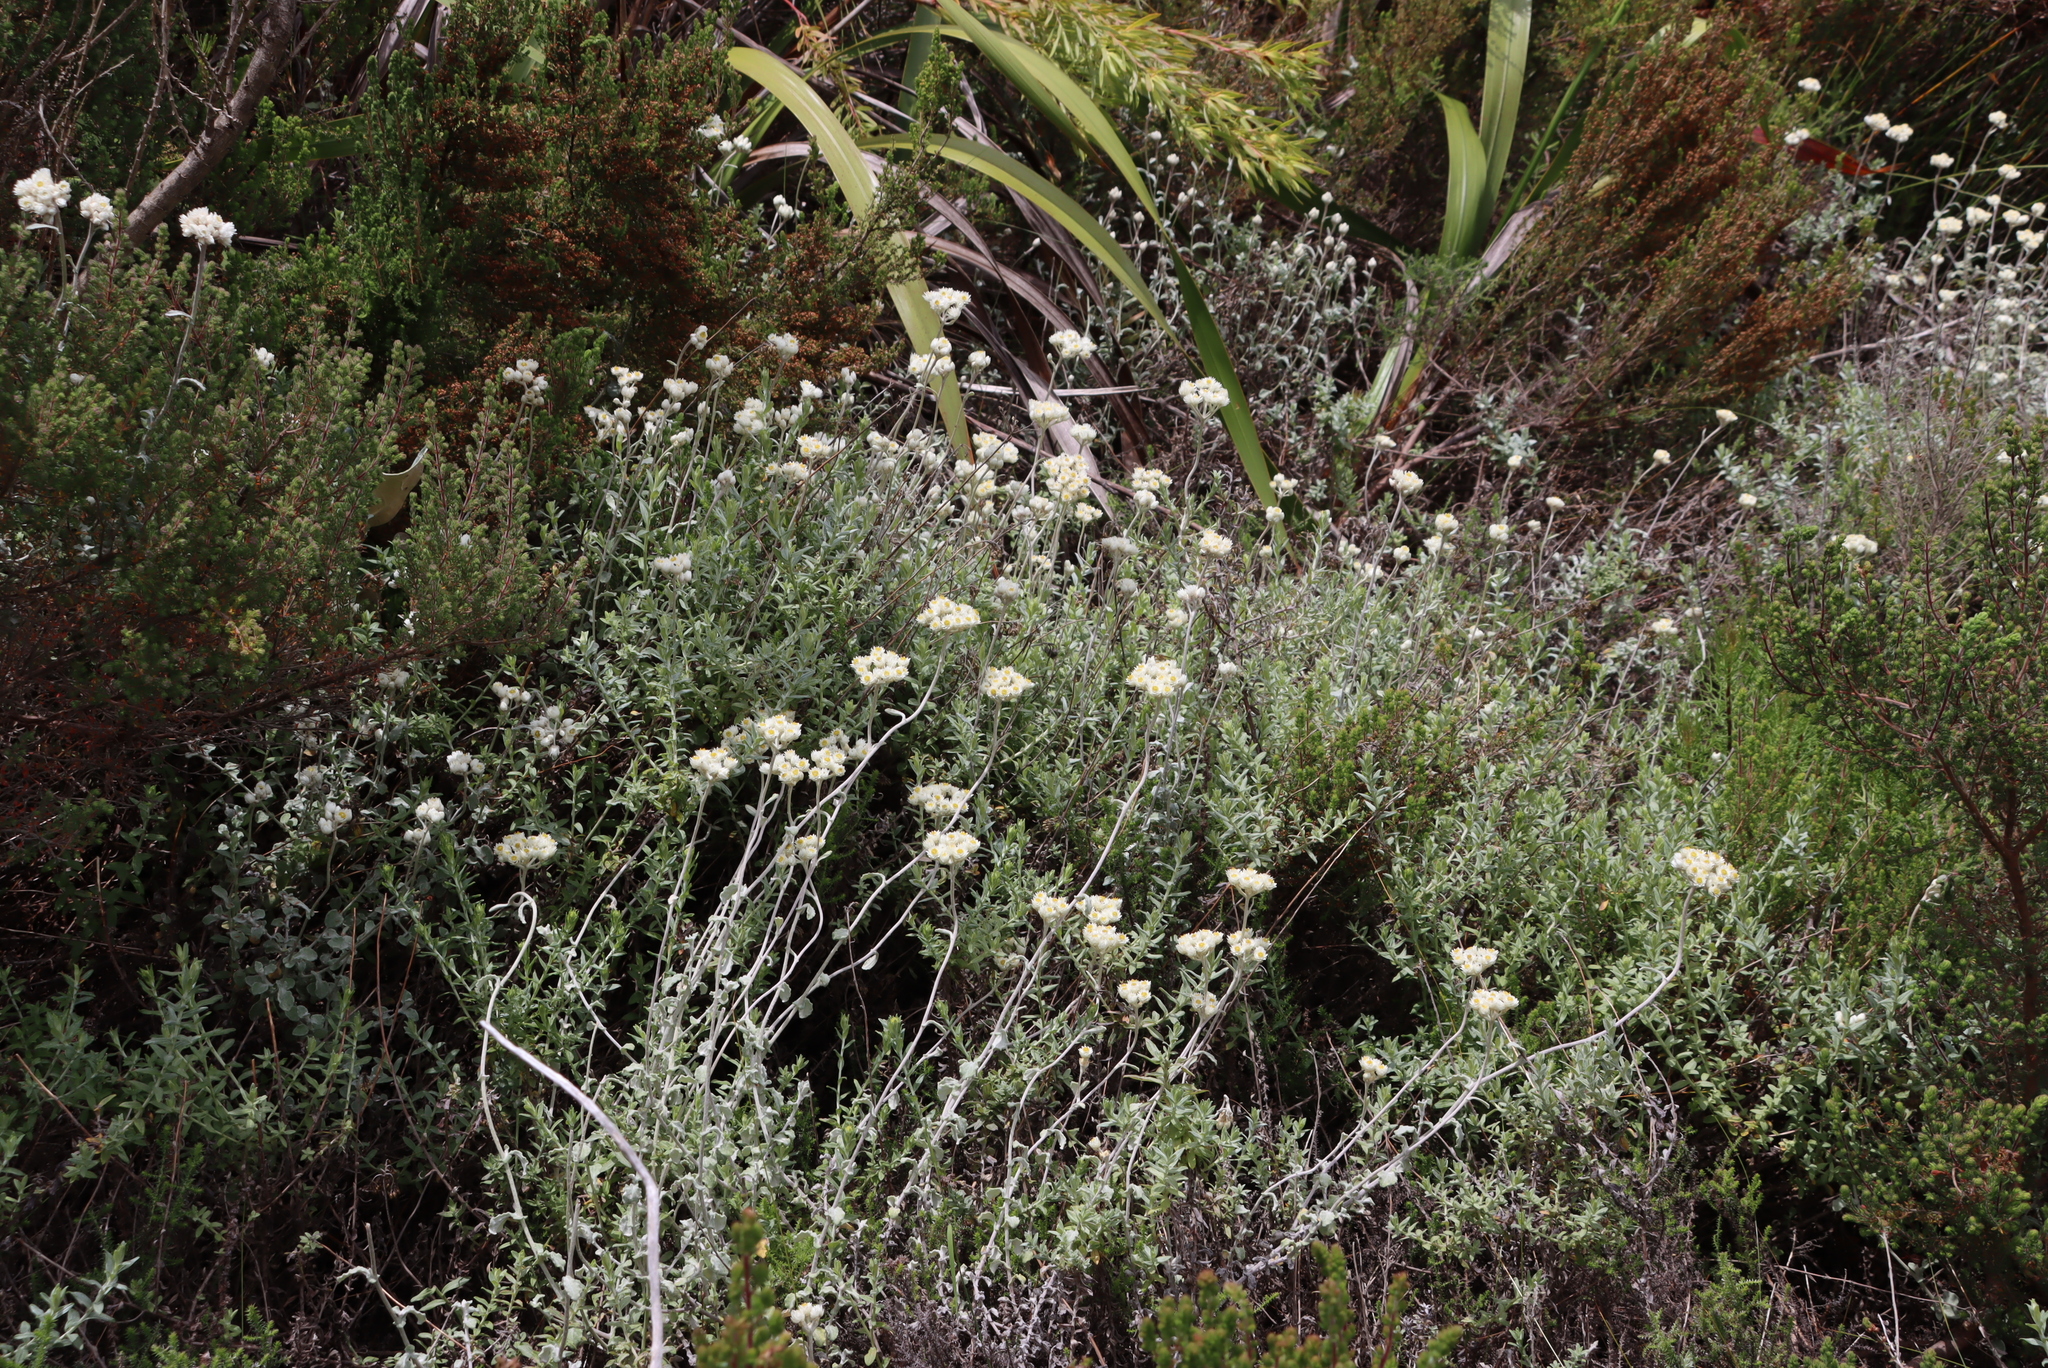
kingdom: Plantae
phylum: Tracheophyta
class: Magnoliopsida
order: Asterales
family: Asteraceae
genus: Helichrysum
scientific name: Helichrysum pandurifolium
